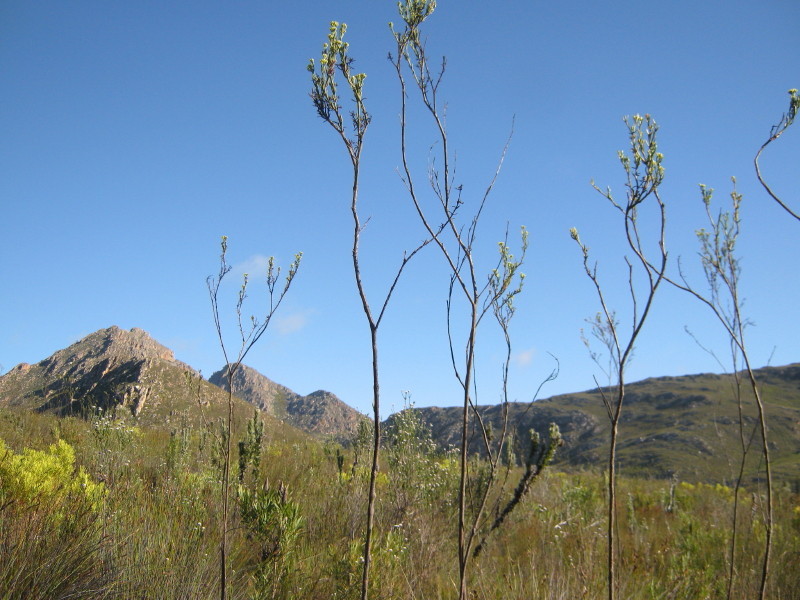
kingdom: Plantae
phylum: Tracheophyta
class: Magnoliopsida
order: Santalales
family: Thesiaceae
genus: Thesium
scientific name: Thesium strictum
